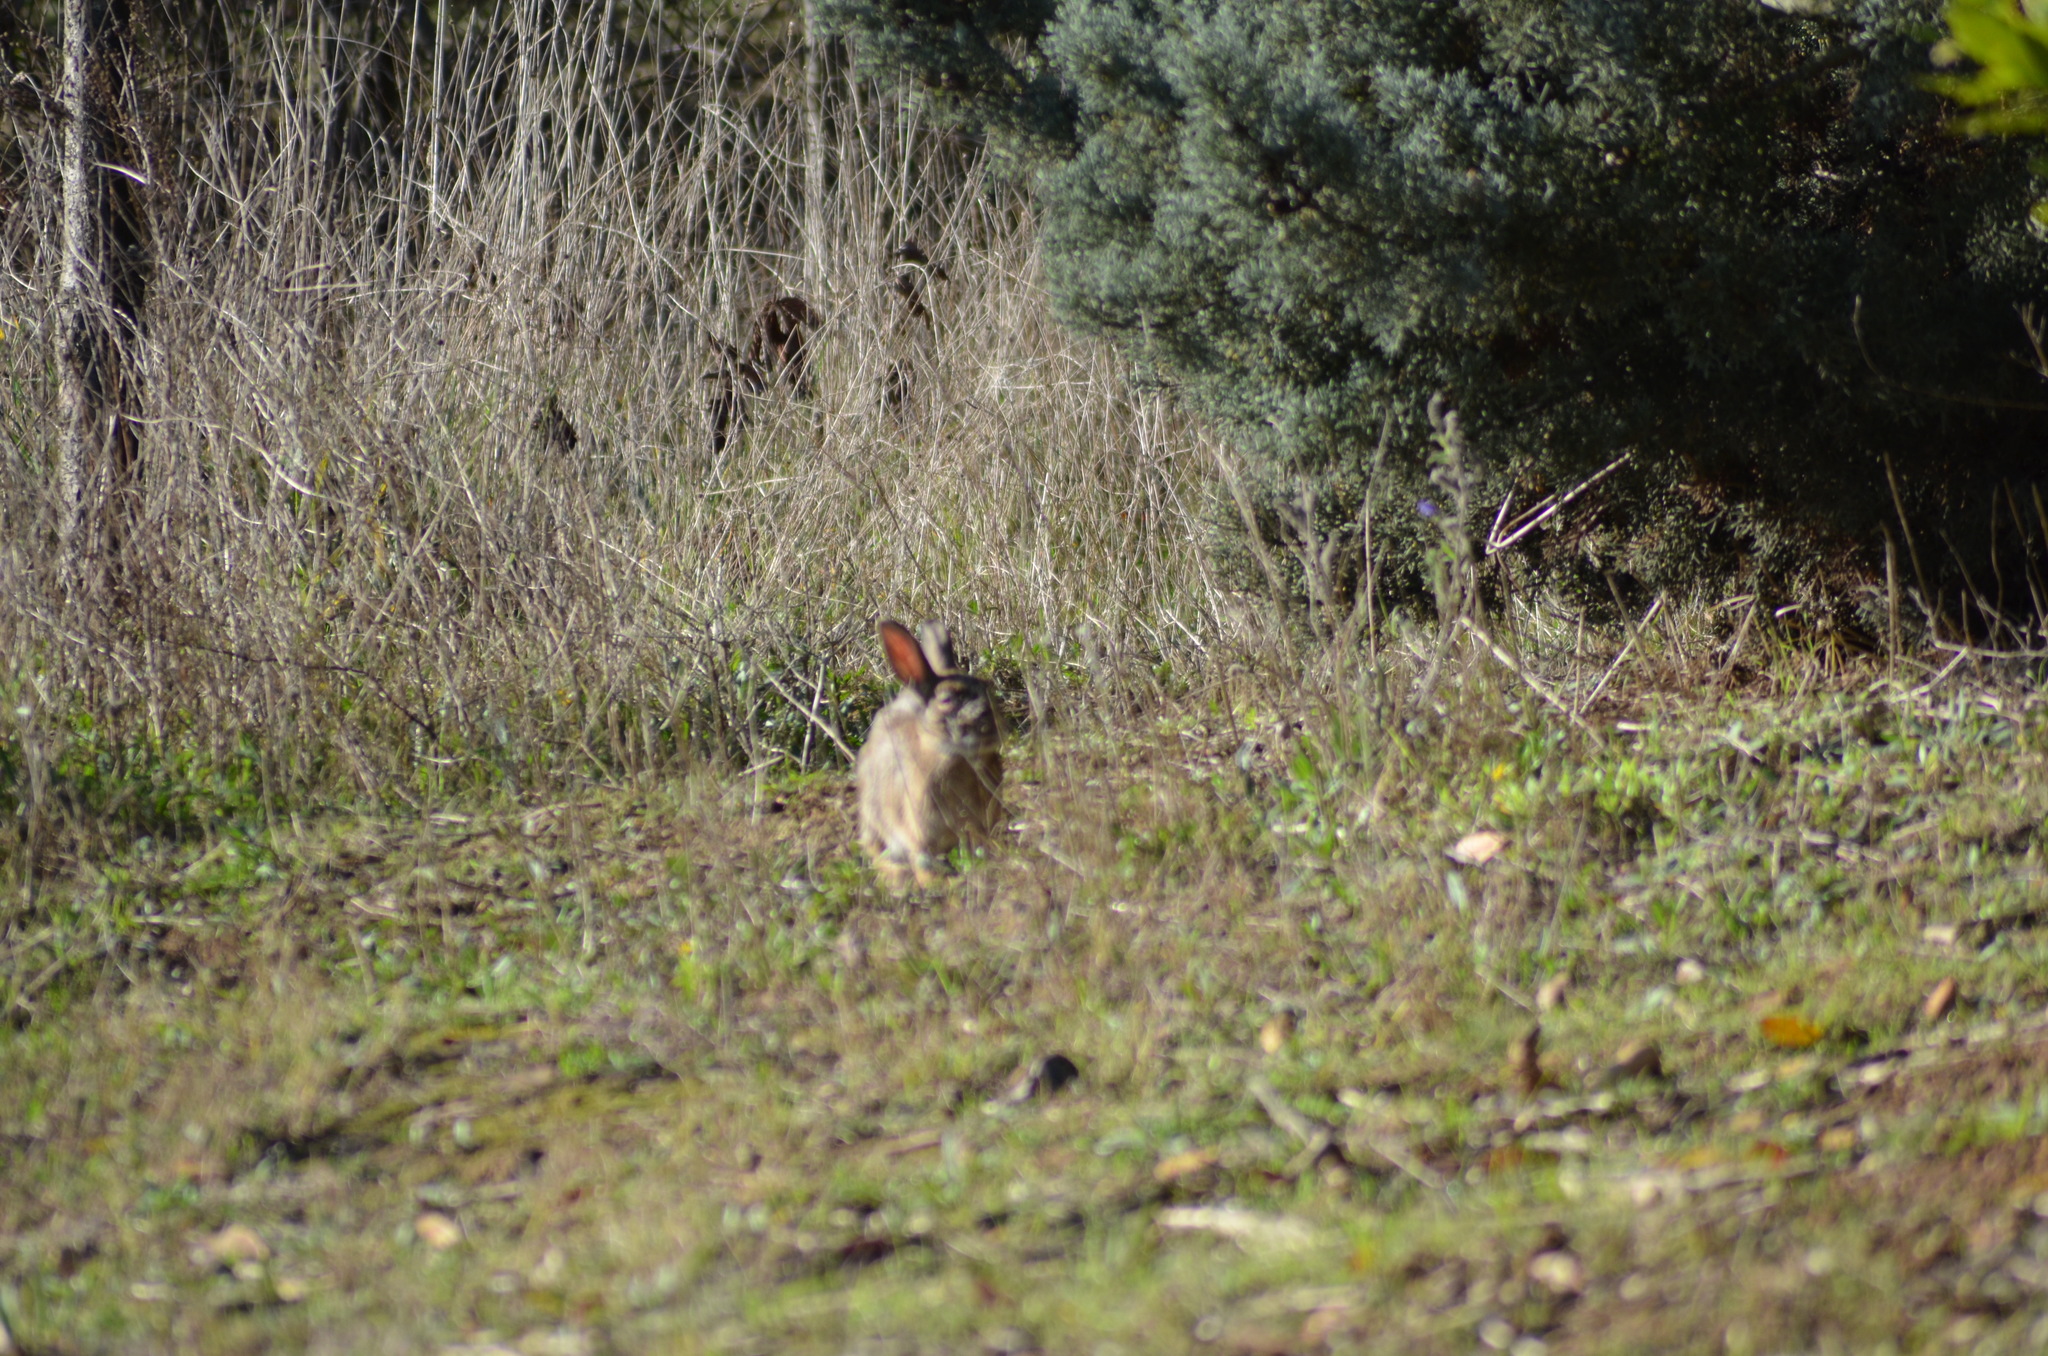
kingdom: Animalia
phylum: Chordata
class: Mammalia
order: Lagomorpha
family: Leporidae
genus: Oryctolagus
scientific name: Oryctolagus cuniculus
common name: European rabbit
